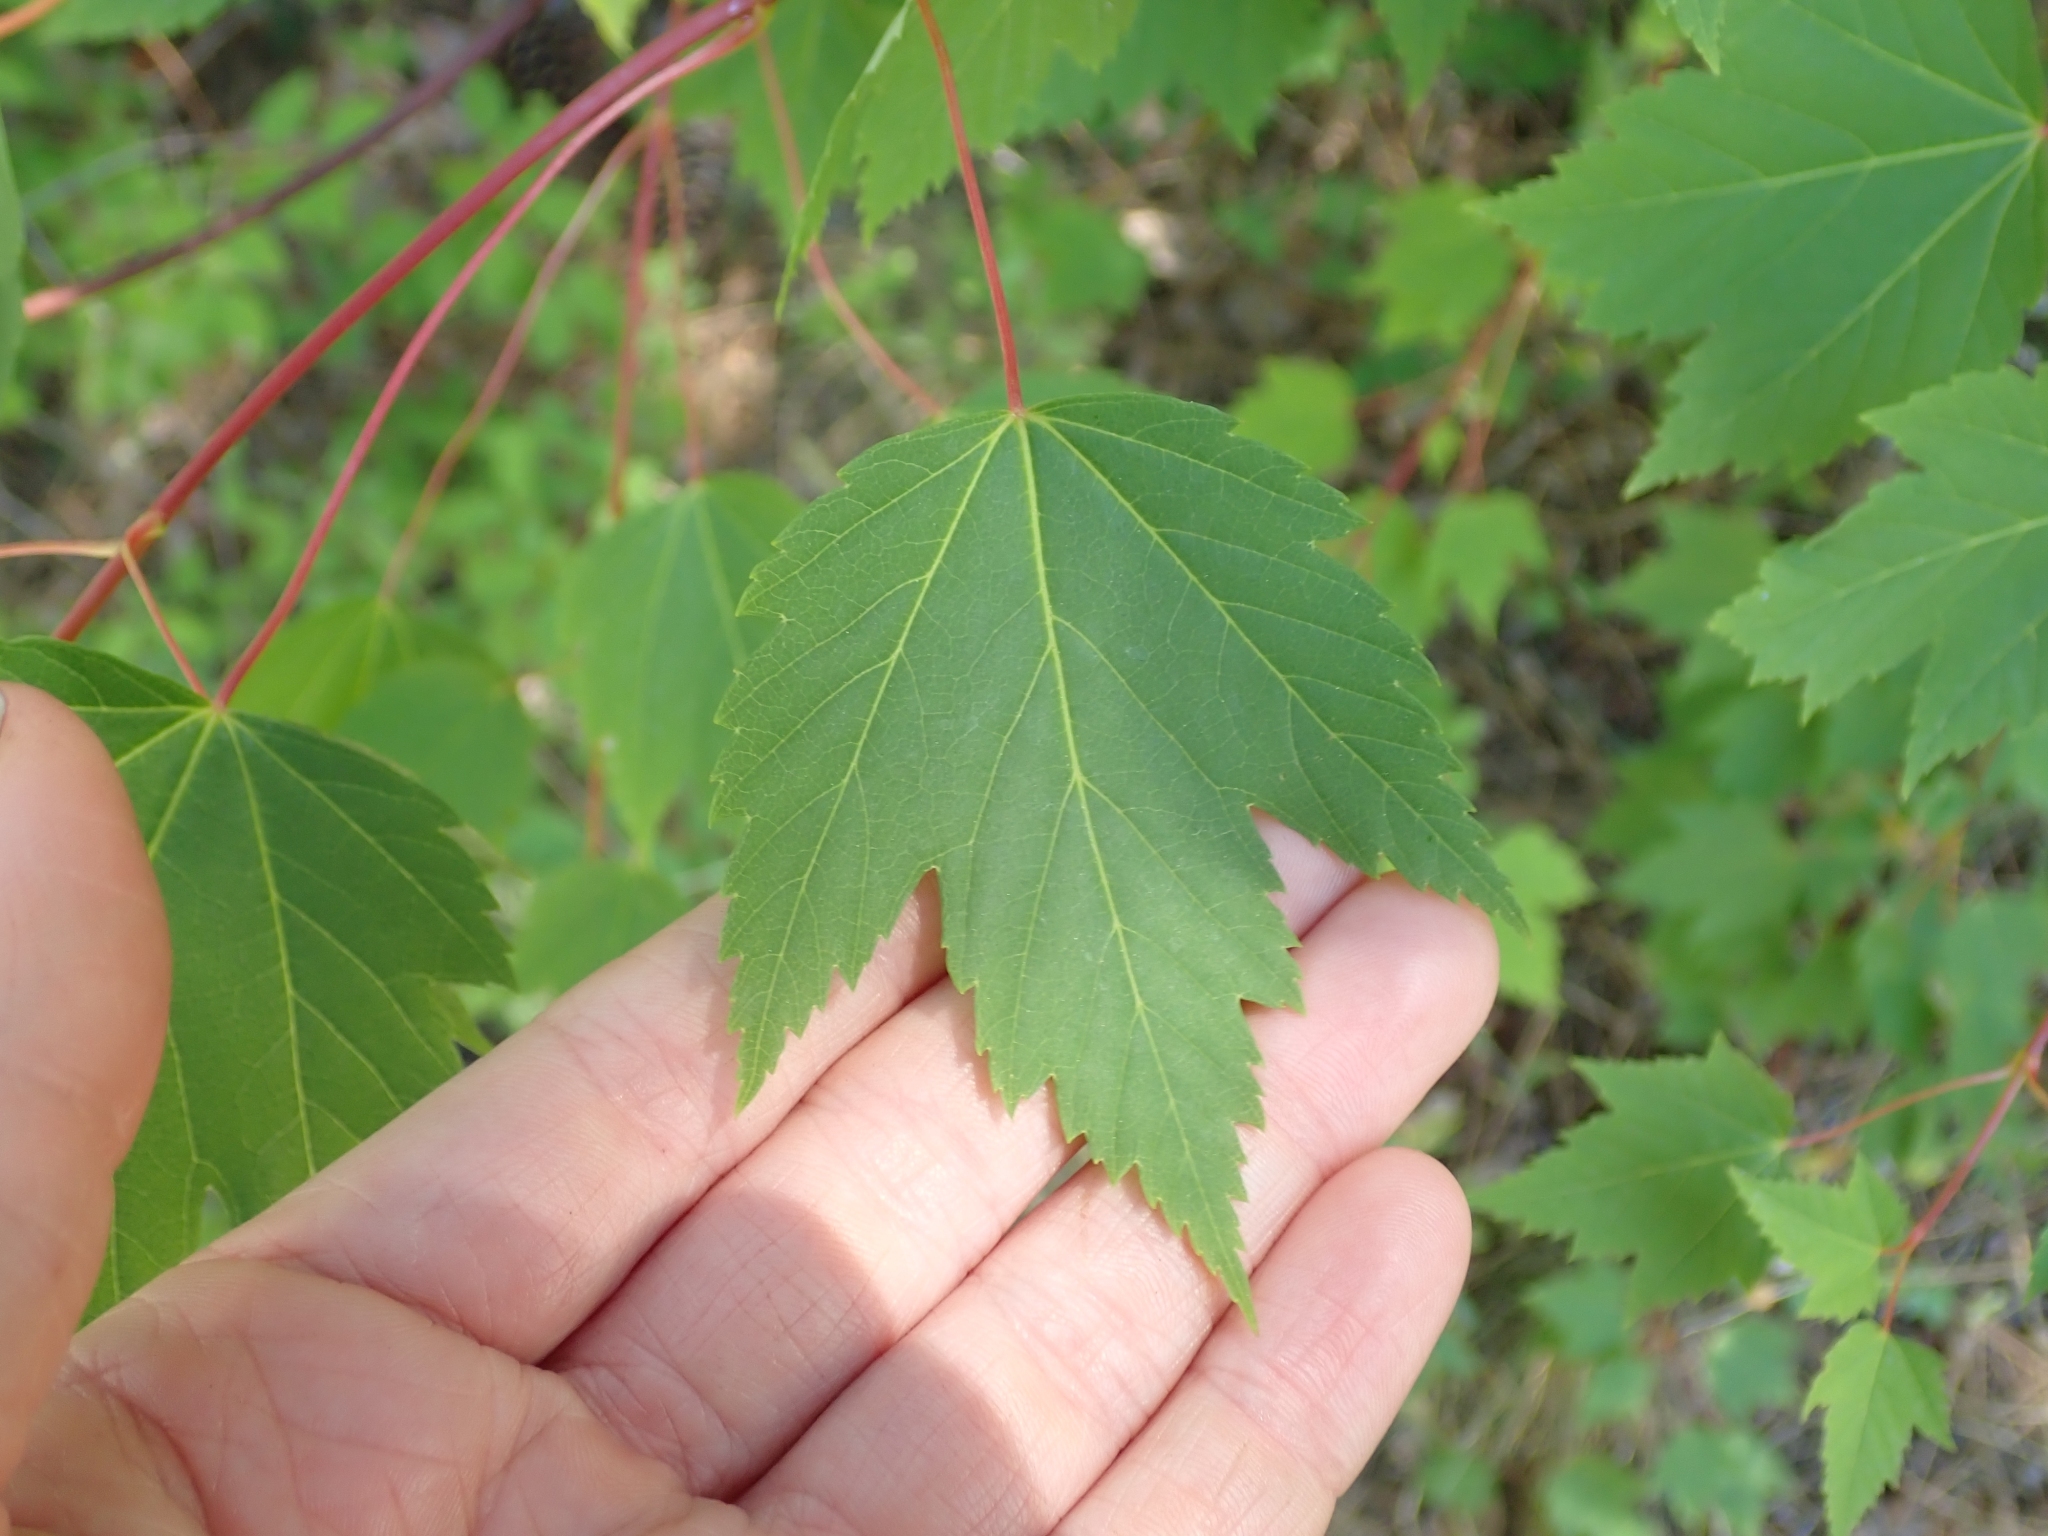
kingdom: Plantae
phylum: Tracheophyta
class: Magnoliopsida
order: Sapindales
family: Sapindaceae
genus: Acer
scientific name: Acer glabrum
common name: Rocky mountain maple
